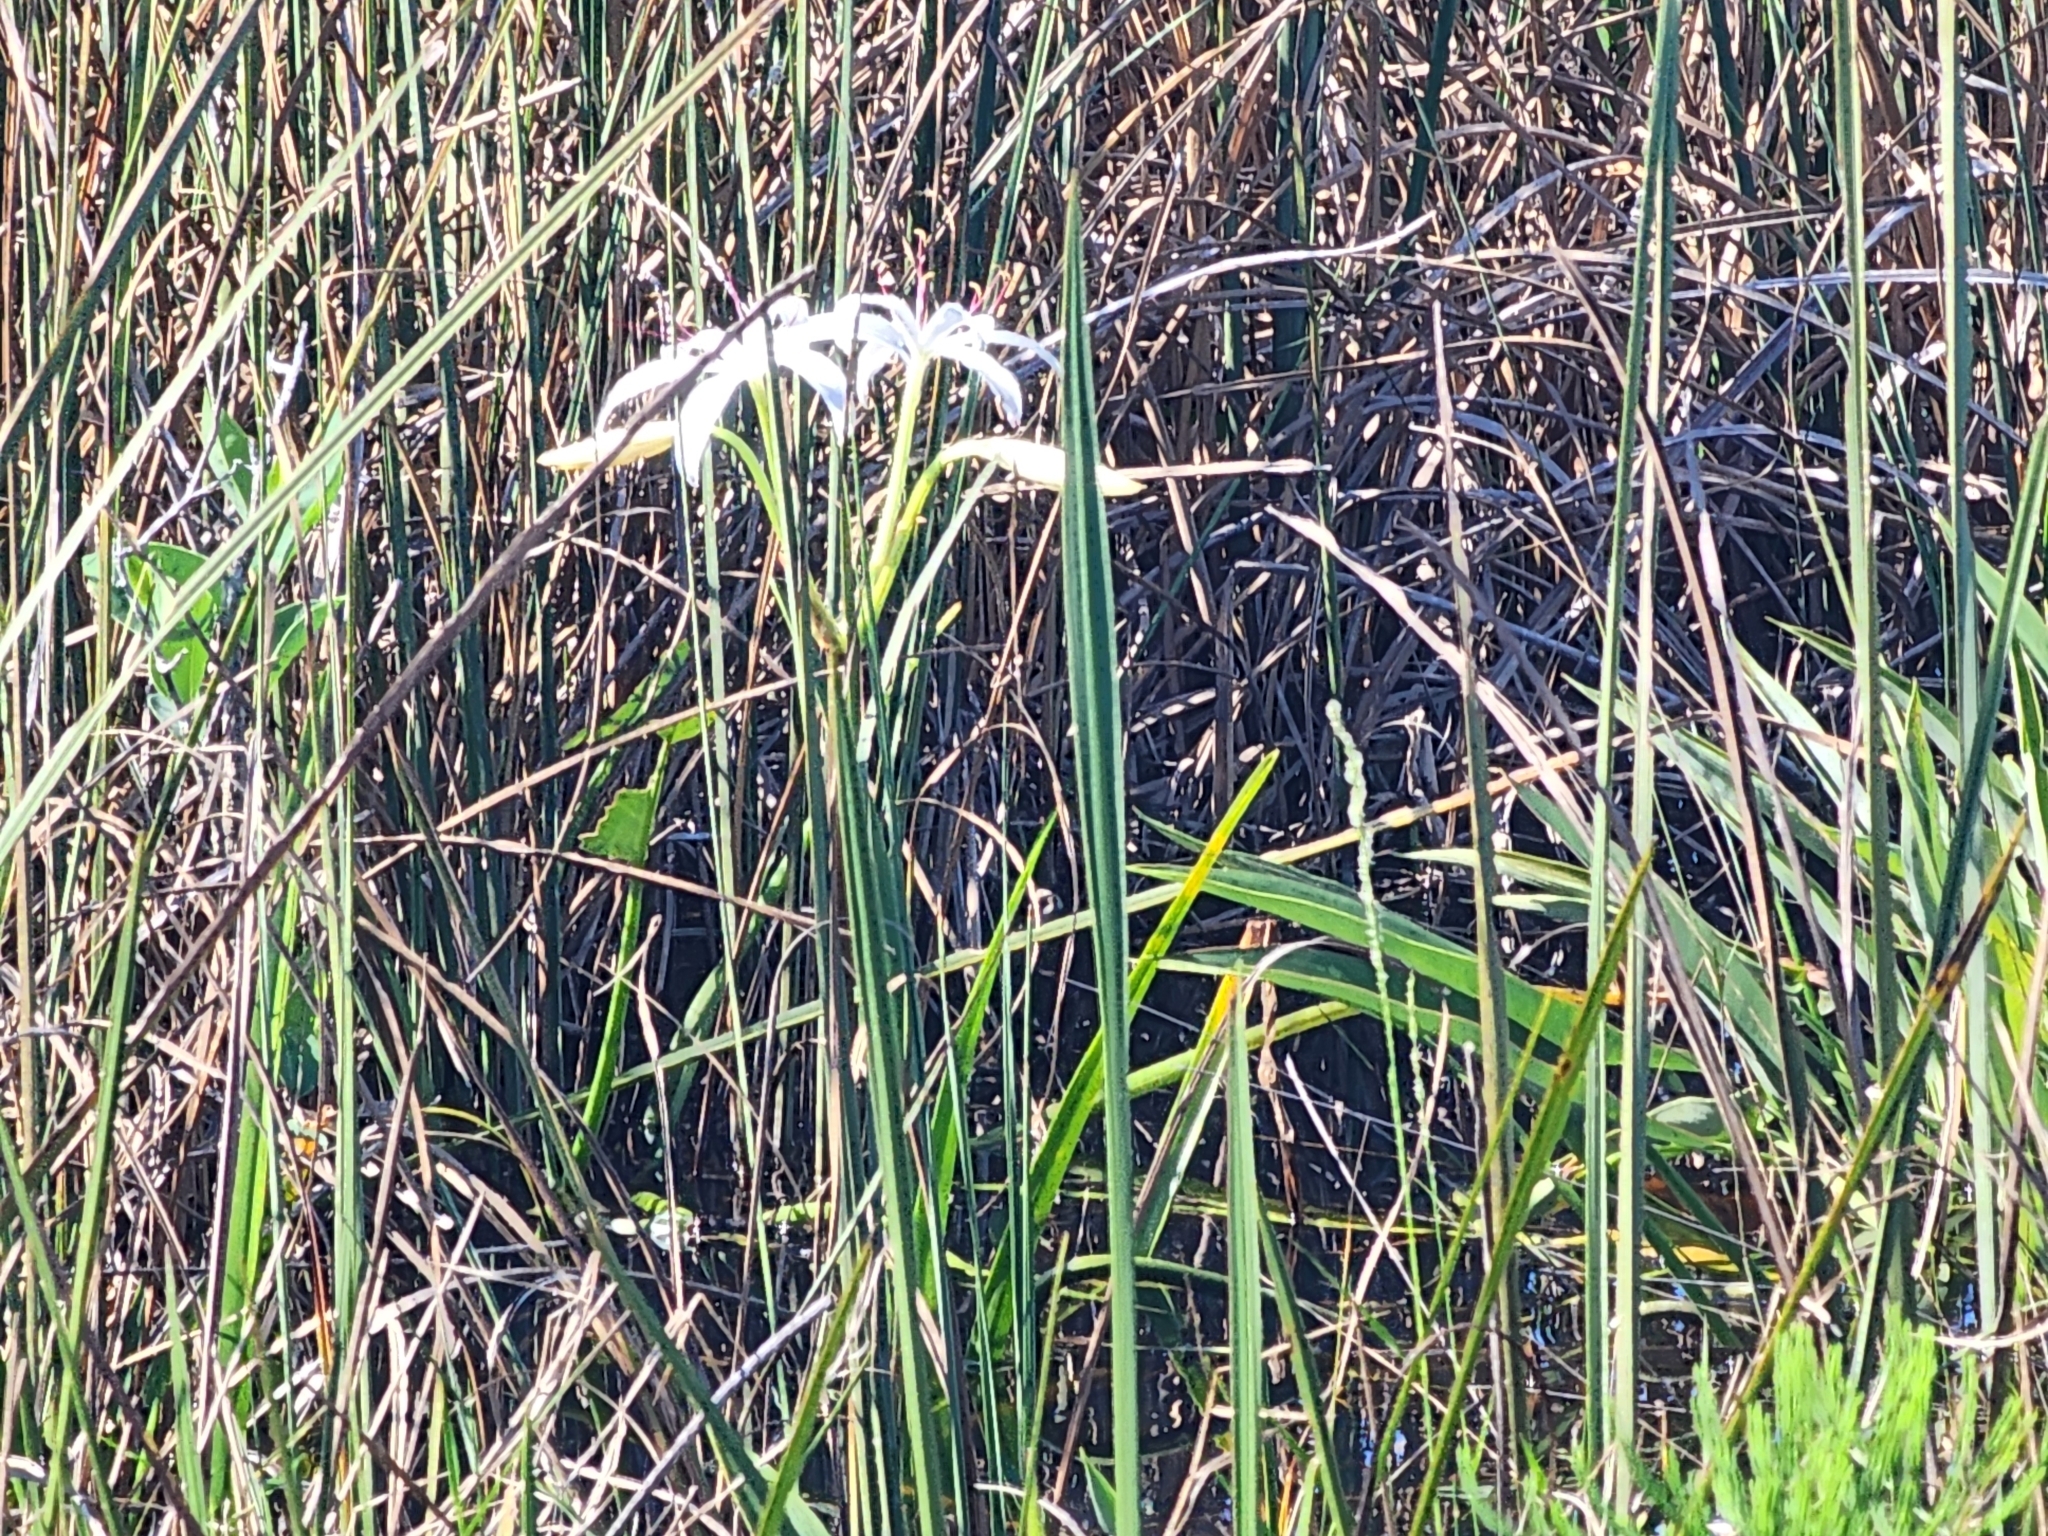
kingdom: Plantae
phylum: Tracheophyta
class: Liliopsida
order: Asparagales
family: Amaryllidaceae
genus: Crinum
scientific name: Crinum americanum
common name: Florida swamp-lily
